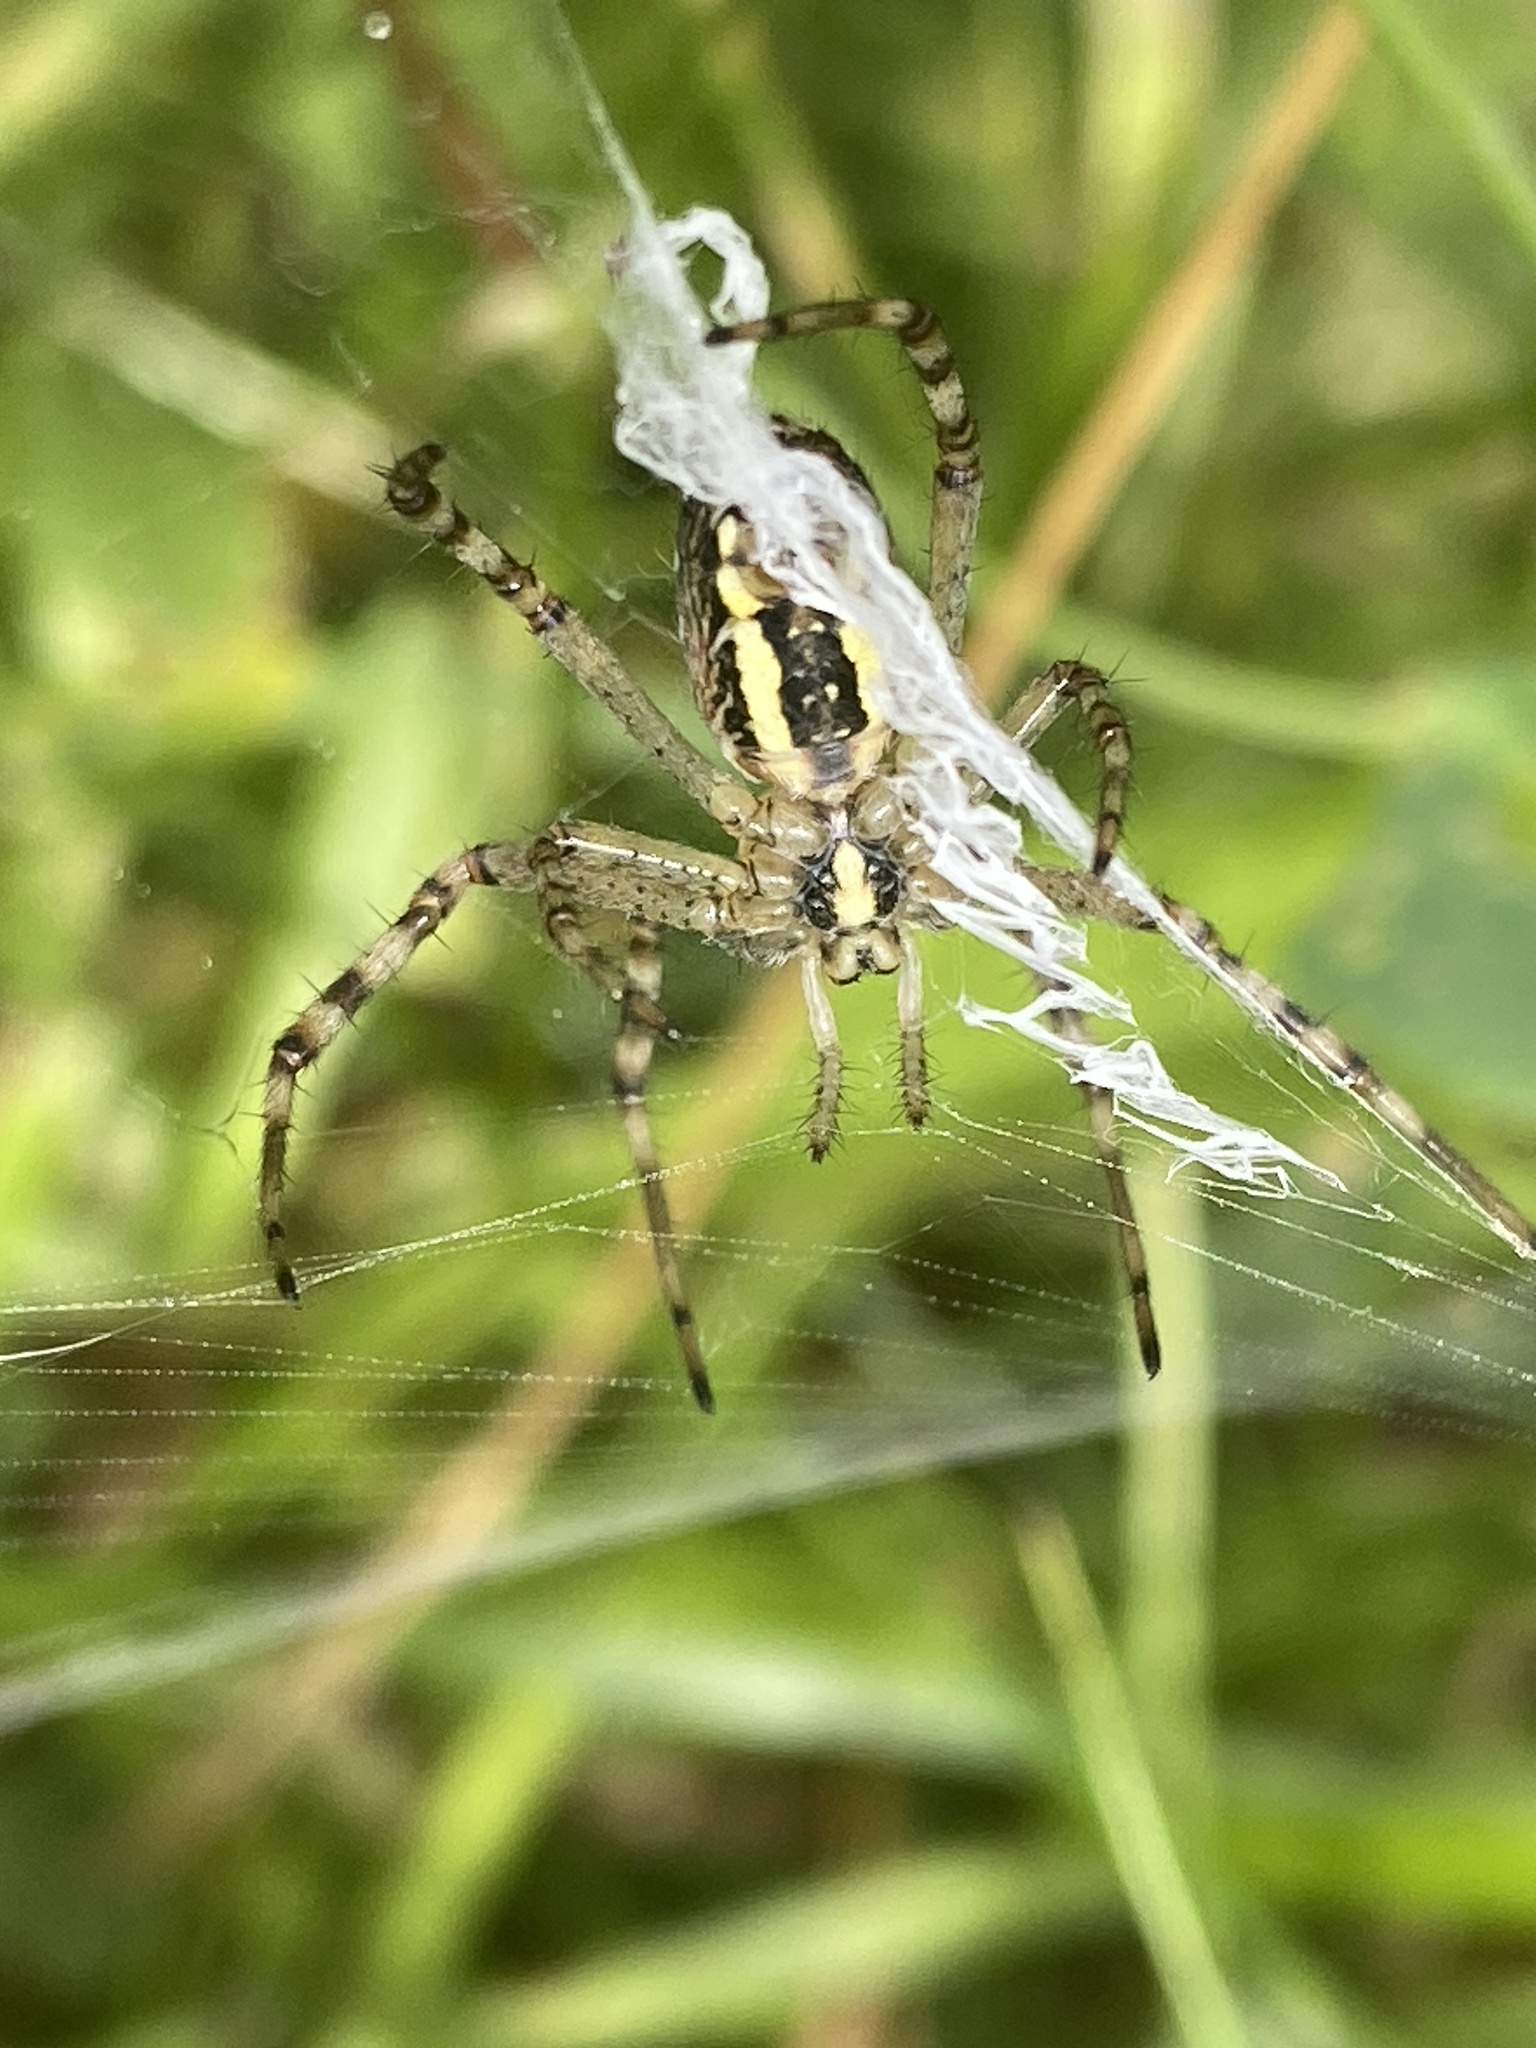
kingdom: Animalia
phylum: Arthropoda
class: Arachnida
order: Araneae
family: Araneidae
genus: Argiope
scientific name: Argiope bruennichi
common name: Wasp spider
